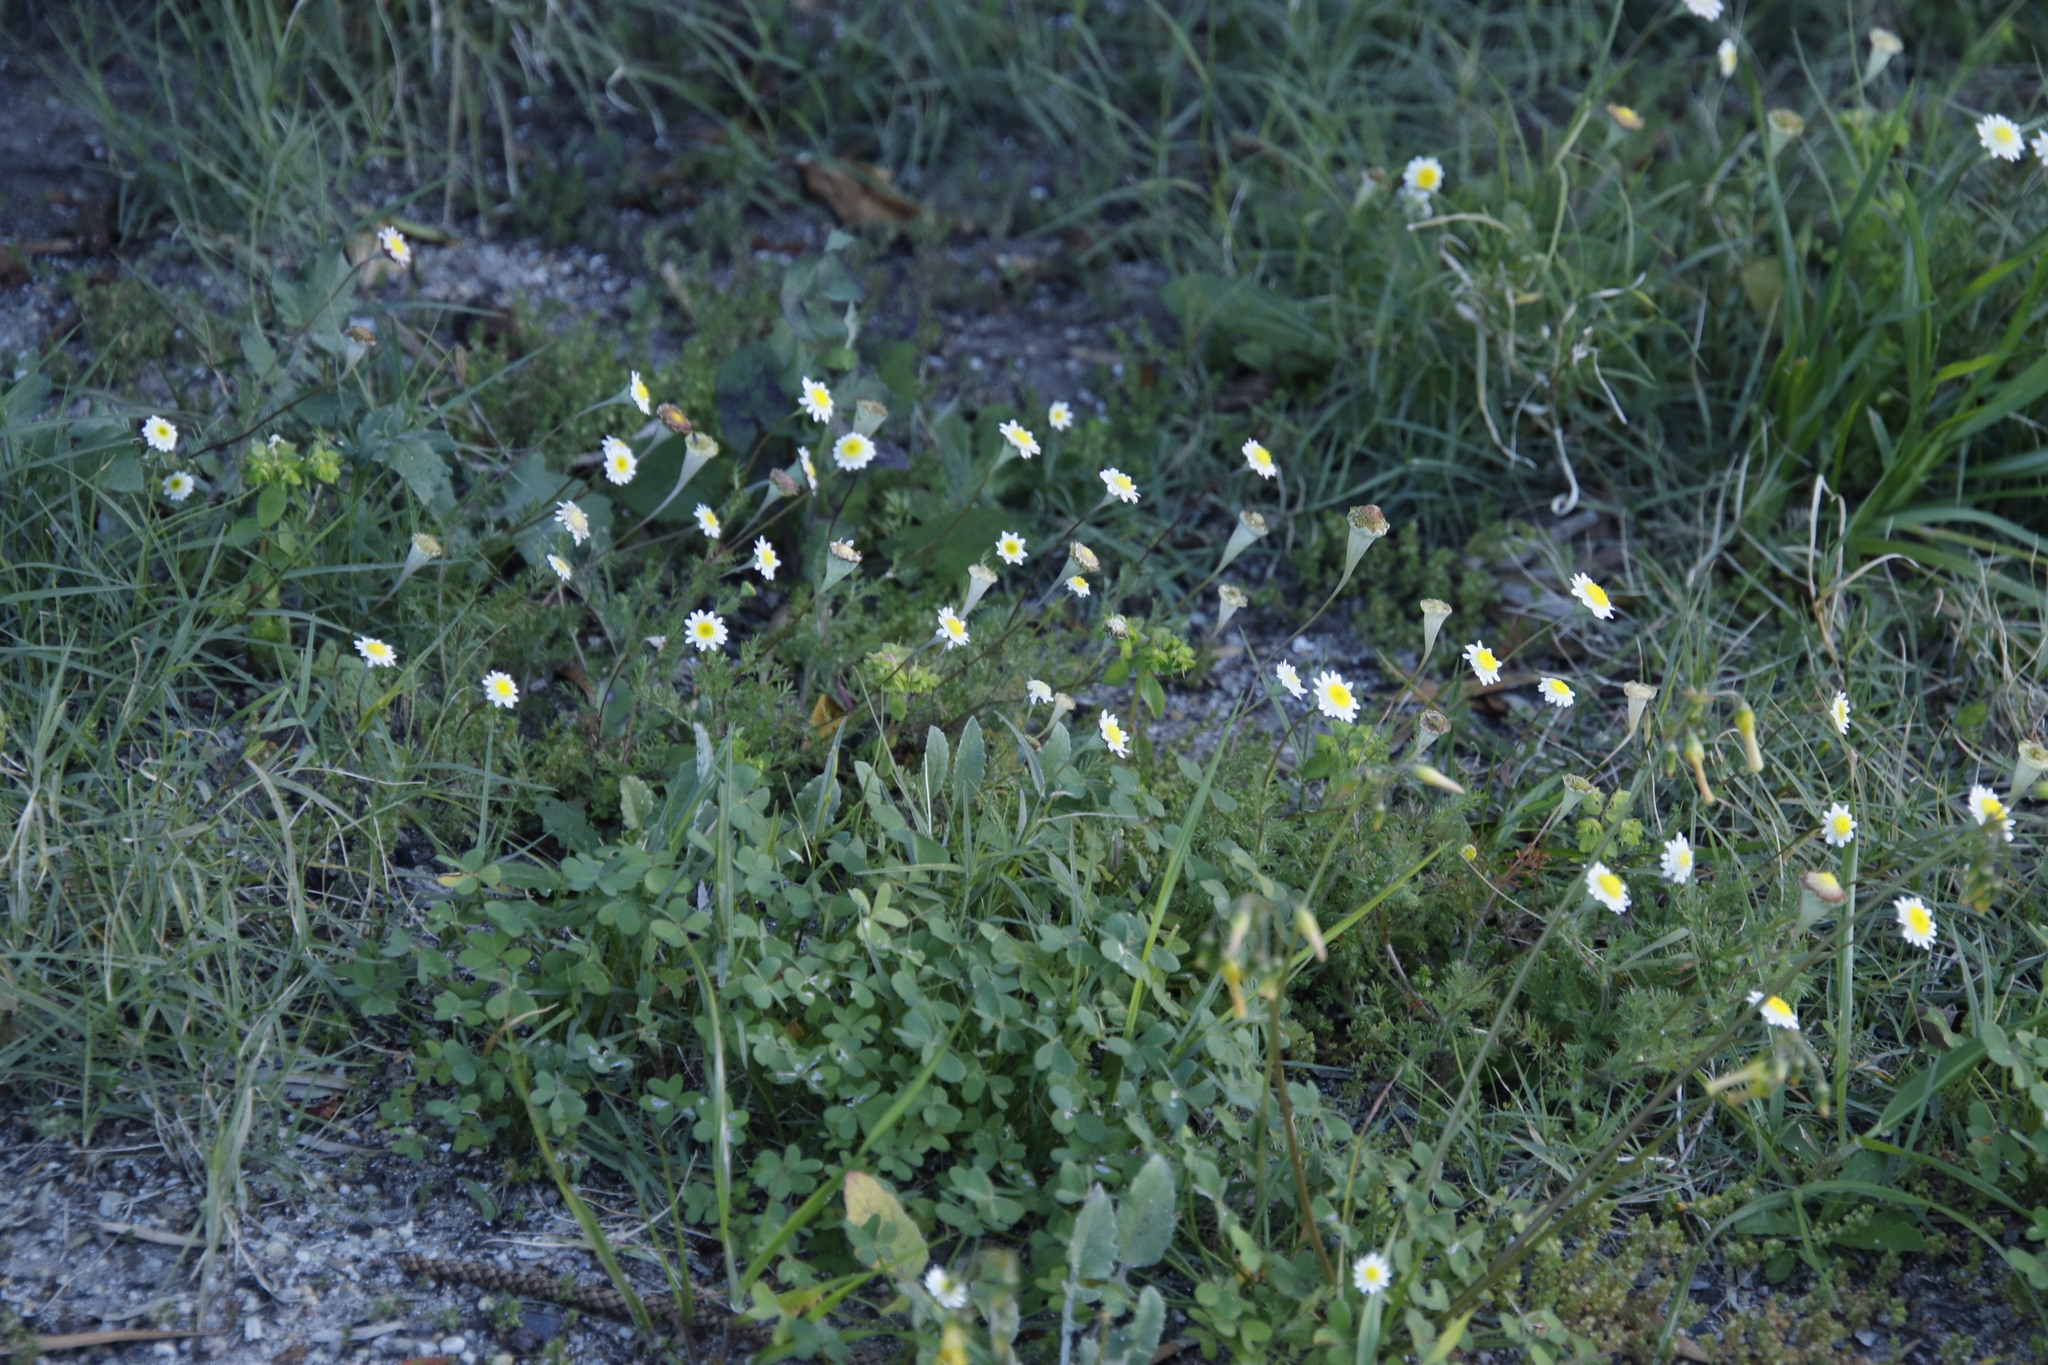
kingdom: Plantae
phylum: Tracheophyta
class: Magnoliopsida
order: Asterales
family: Asteraceae
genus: Cotula
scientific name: Cotula turbinata
